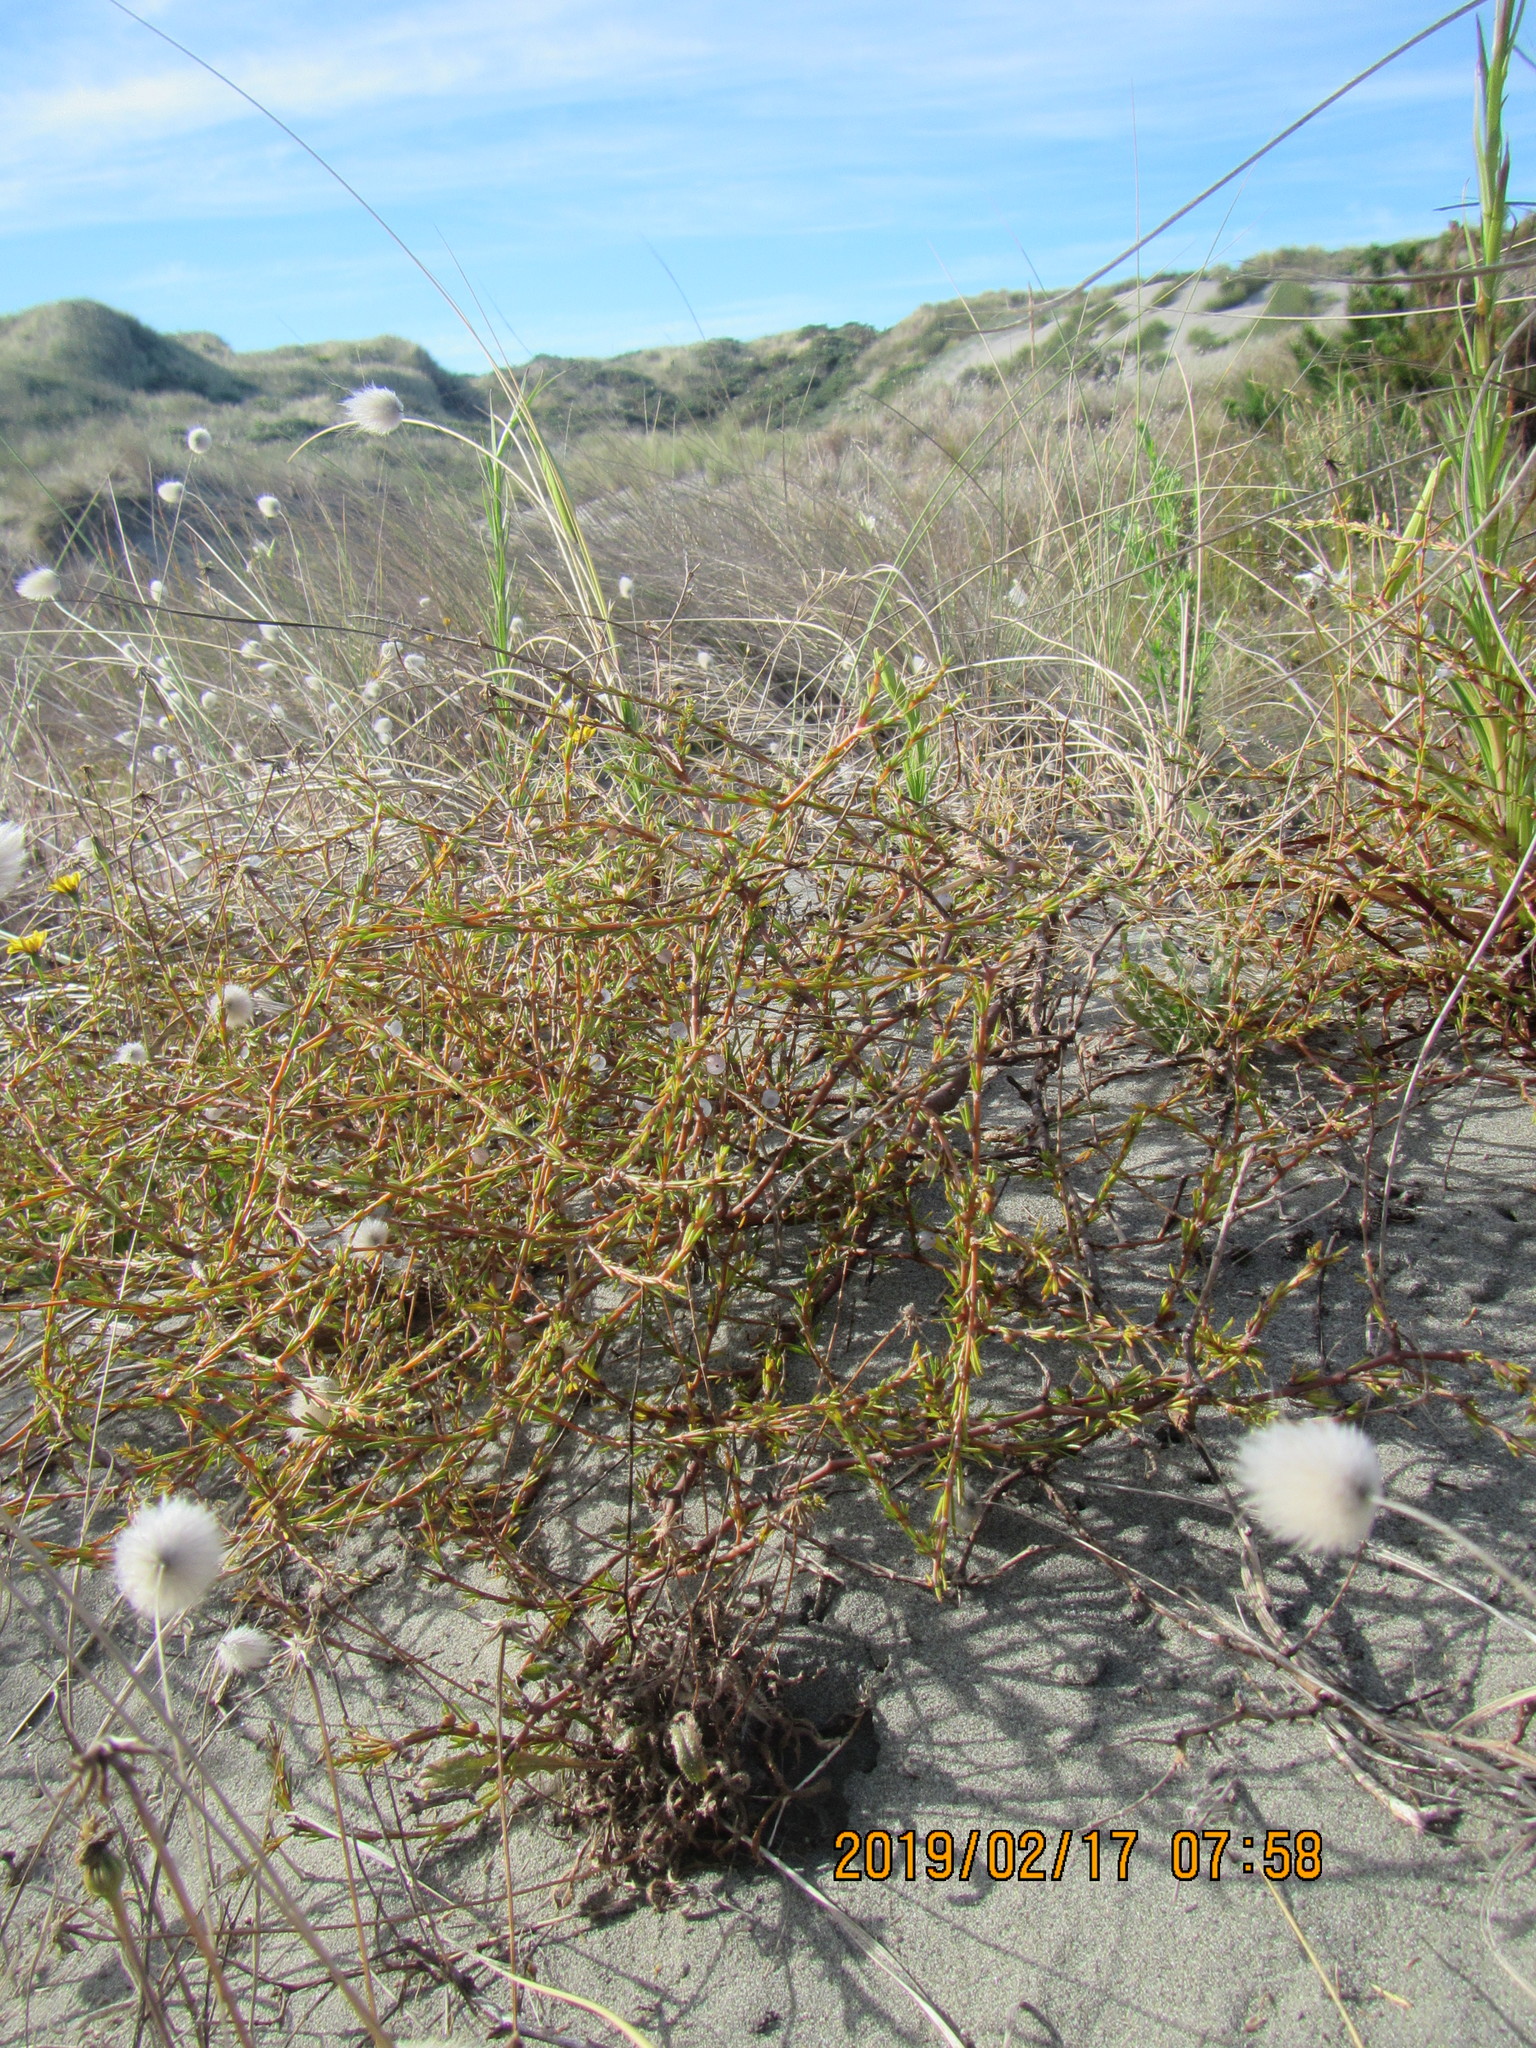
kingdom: Plantae
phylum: Tracheophyta
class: Magnoliopsida
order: Gentianales
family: Rubiaceae
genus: Coprosma
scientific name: Coprosma acerosa
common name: Sand coprosma
